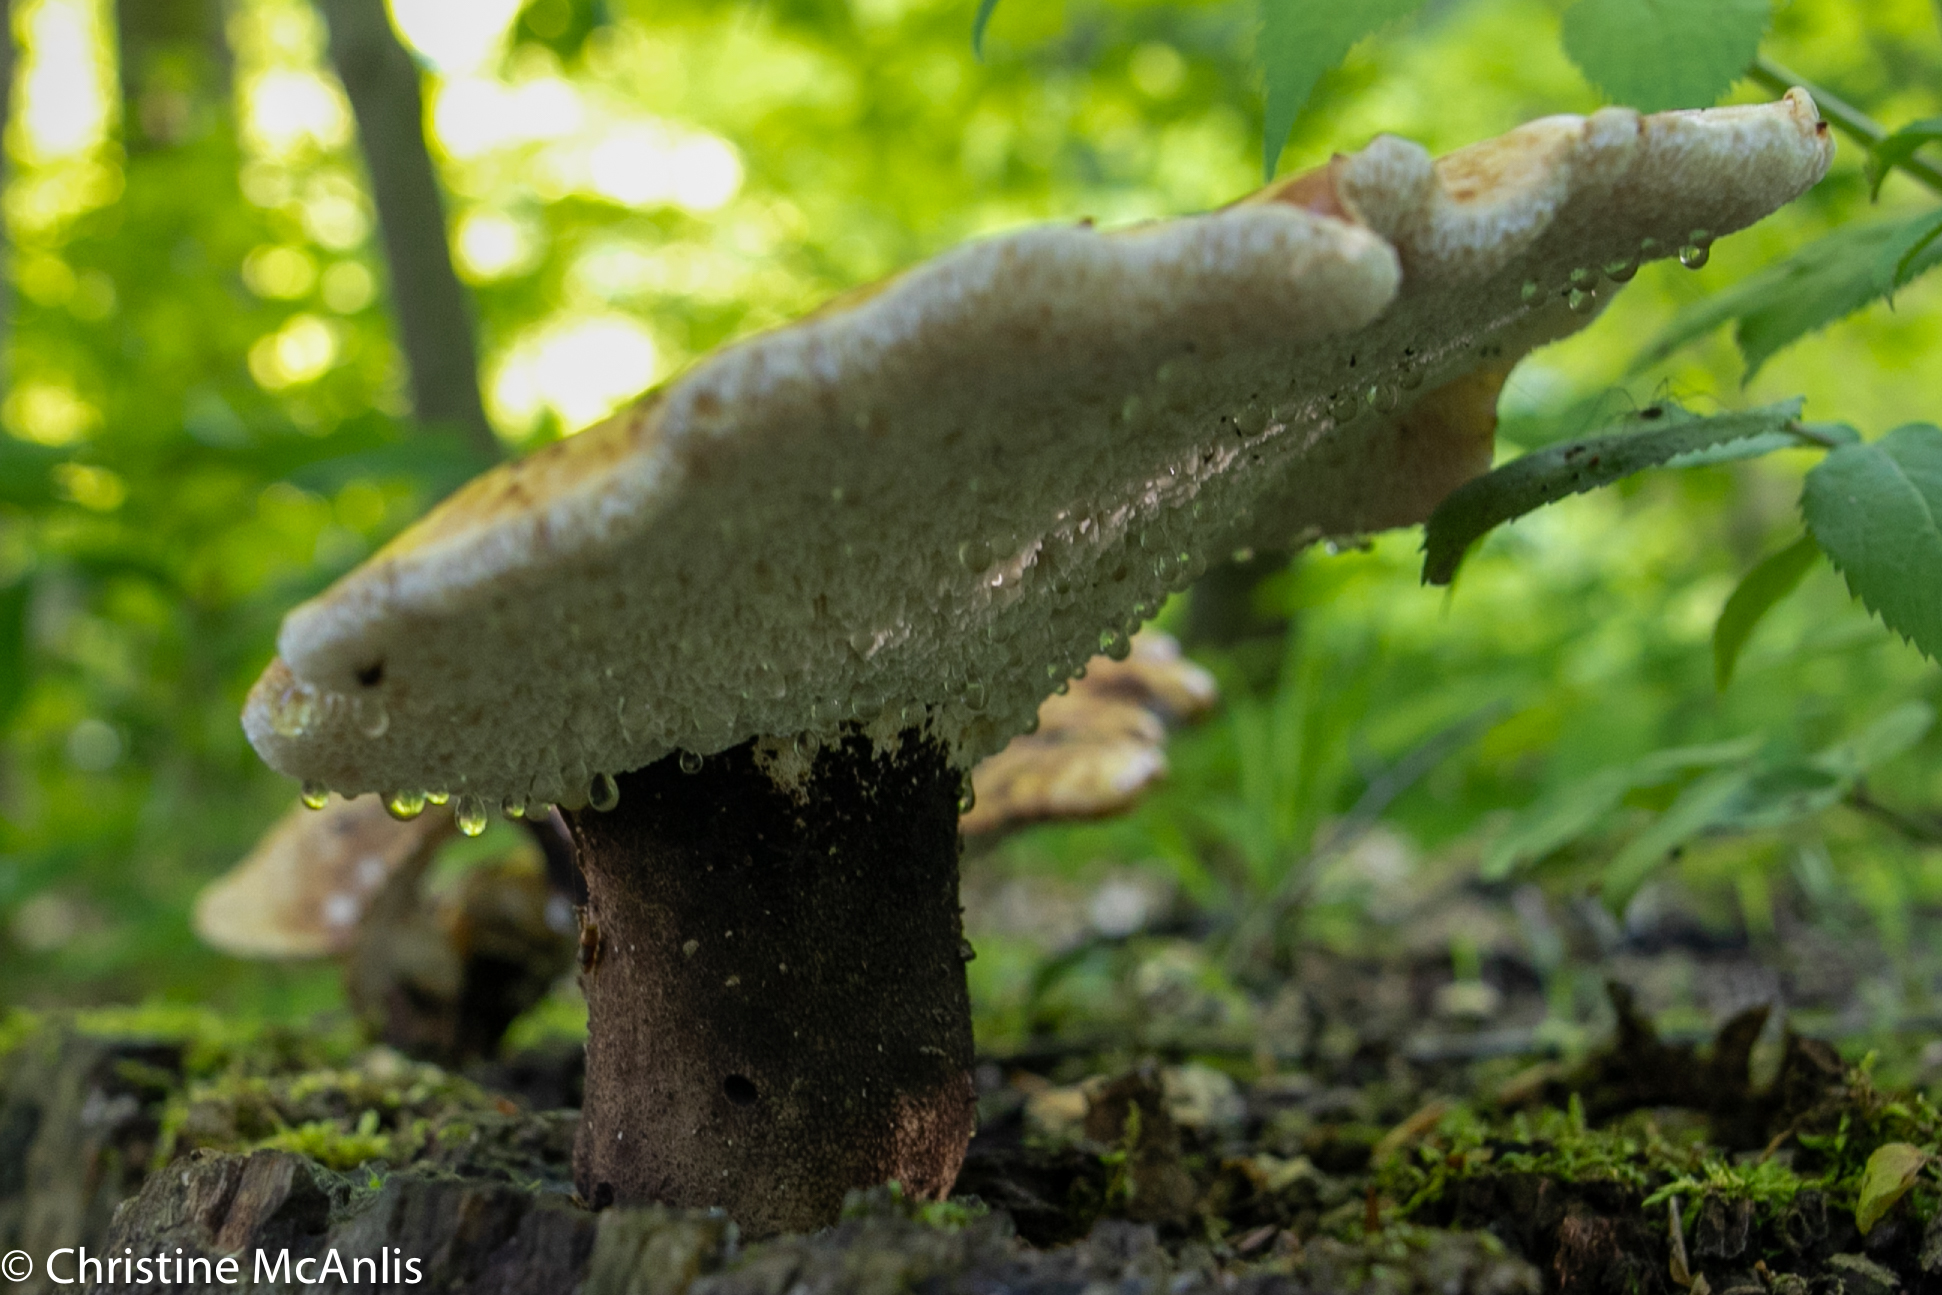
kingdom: Fungi
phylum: Basidiomycota
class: Agaricomycetes
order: Polyporales
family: Polyporaceae
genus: Cerioporus
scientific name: Cerioporus squamosus
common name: Dryad's saddle
